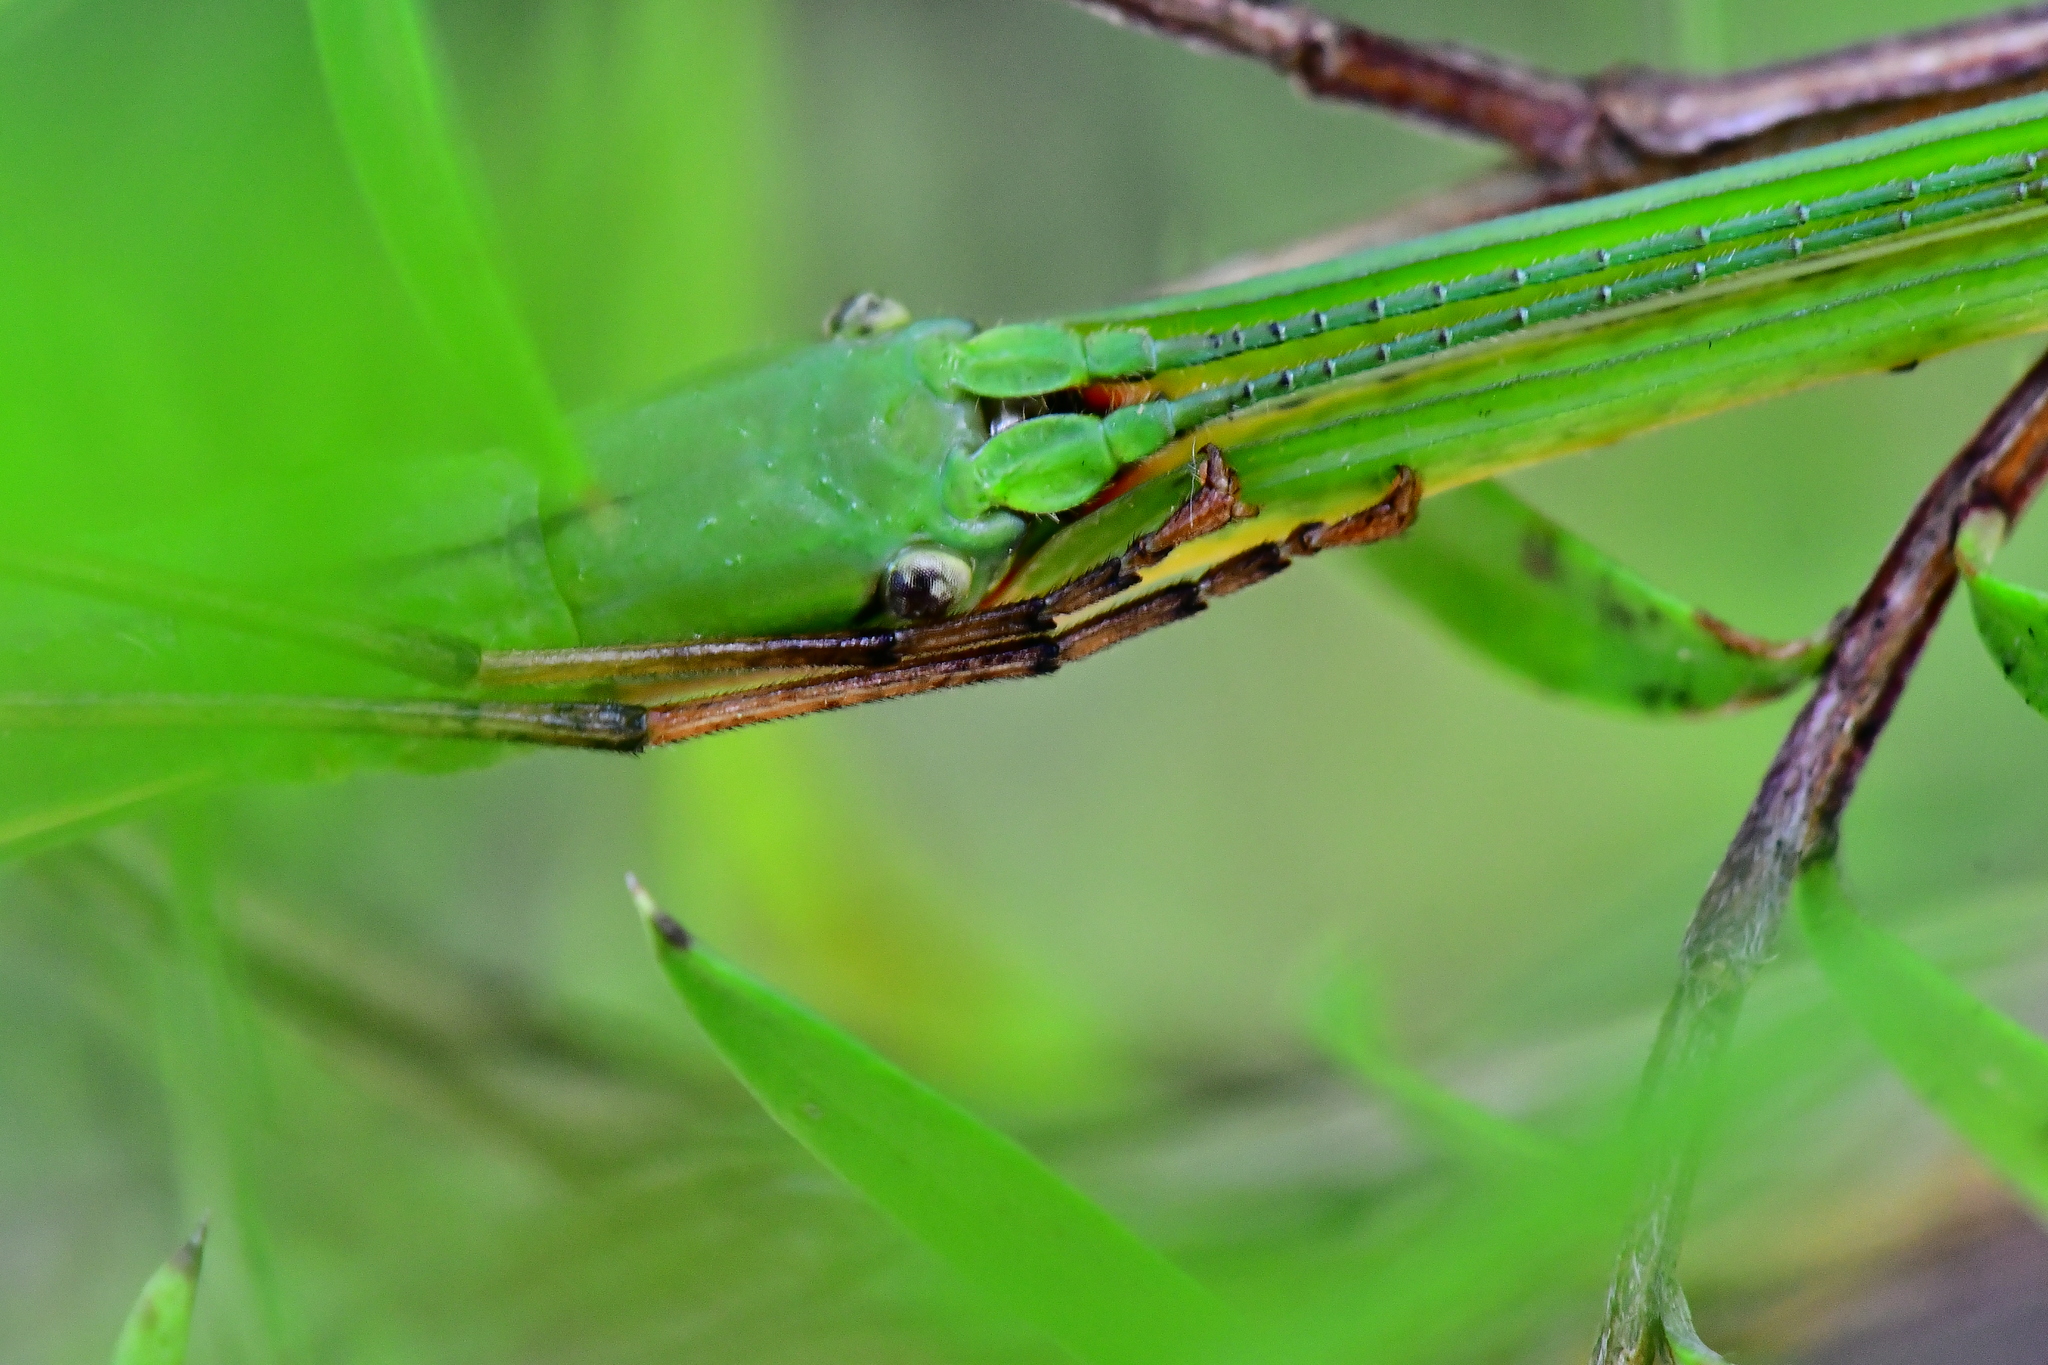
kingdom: Animalia
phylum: Arthropoda
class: Insecta
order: Phasmida
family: Phasmatidae
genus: Clitarchus
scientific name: Clitarchus hookeri
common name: Smooth stick insect
